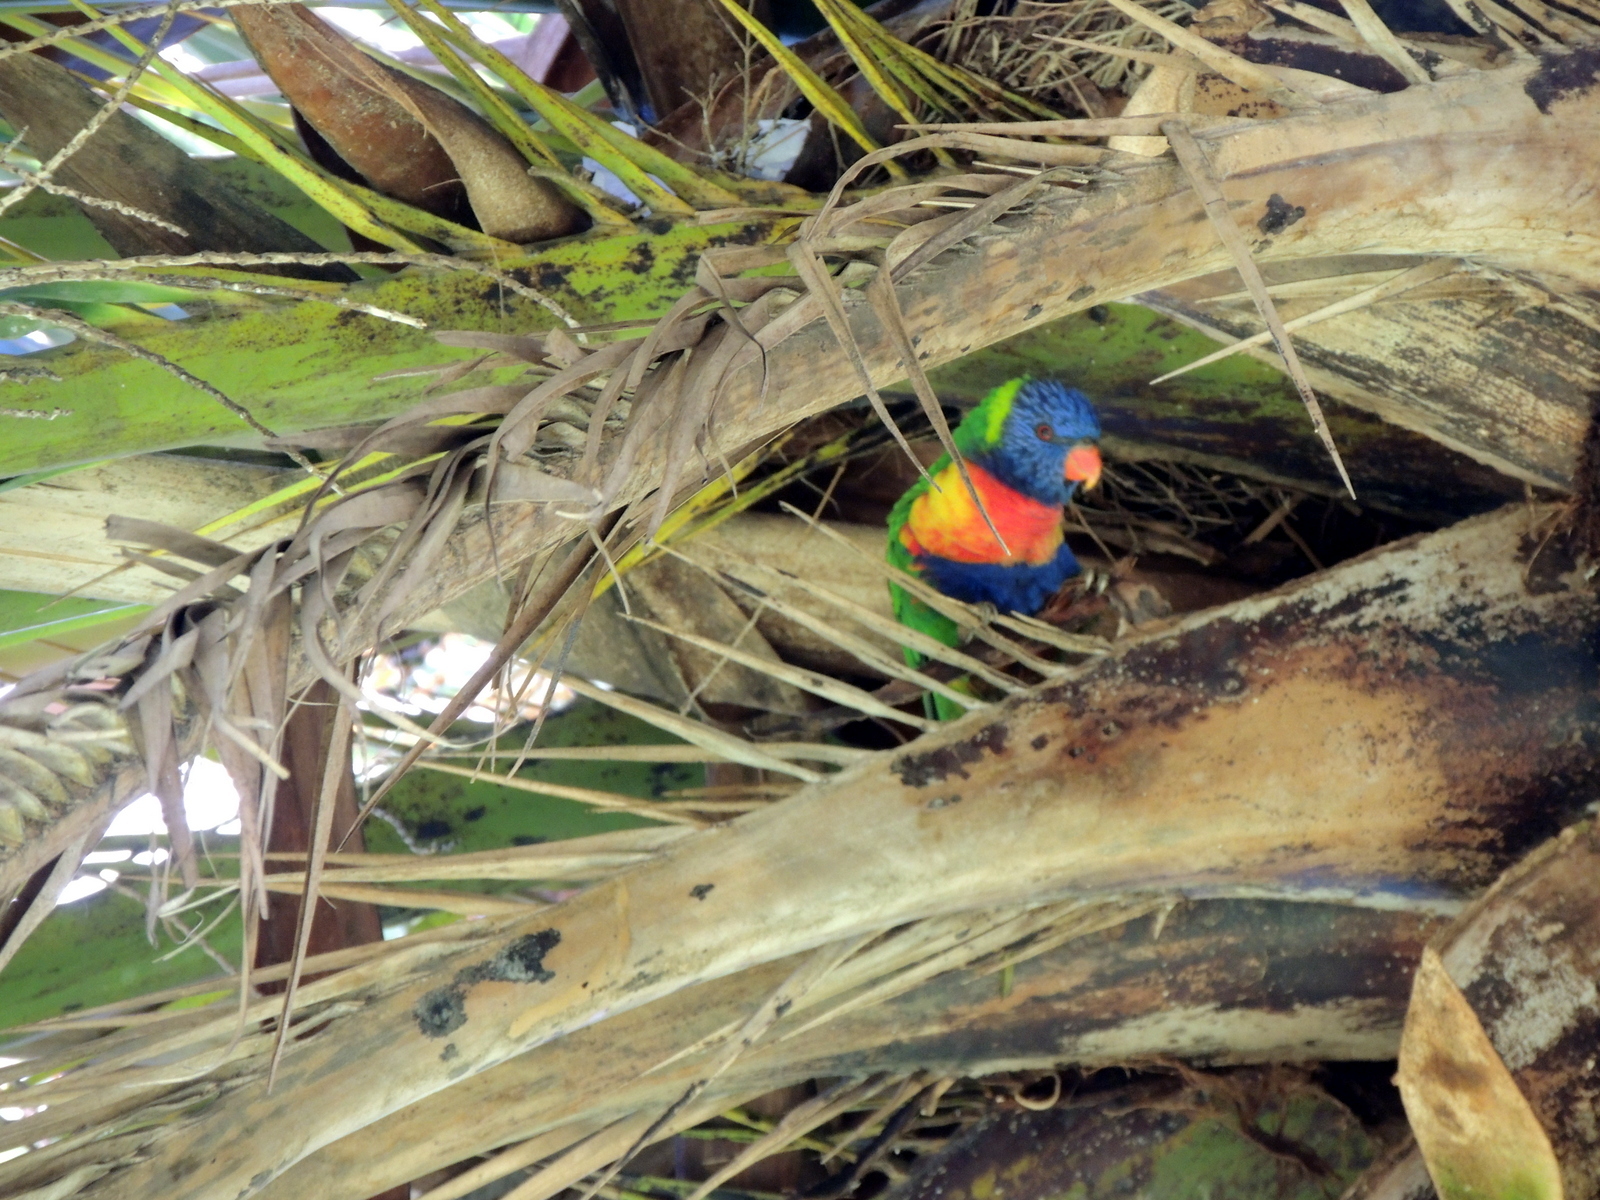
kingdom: Animalia
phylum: Chordata
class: Aves
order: Psittaciformes
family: Psittacidae
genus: Trichoglossus
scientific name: Trichoglossus haematodus
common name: Coconut lorikeet
